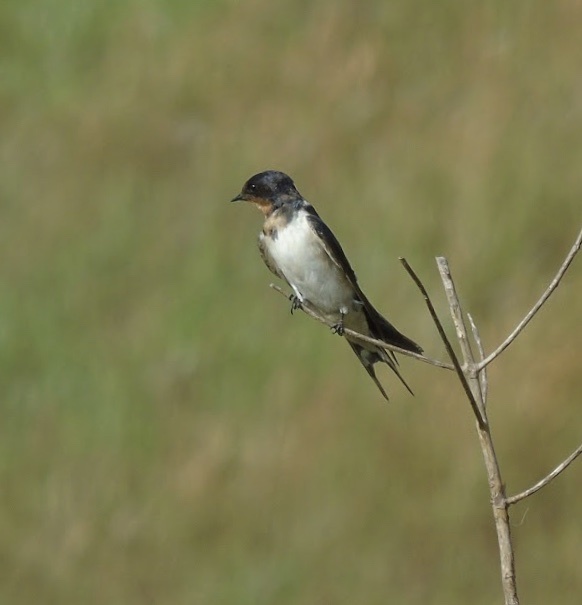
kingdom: Animalia
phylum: Chordata
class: Aves
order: Passeriformes
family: Hirundinidae
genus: Hirundo
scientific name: Hirundo rustica
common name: Barn swallow
